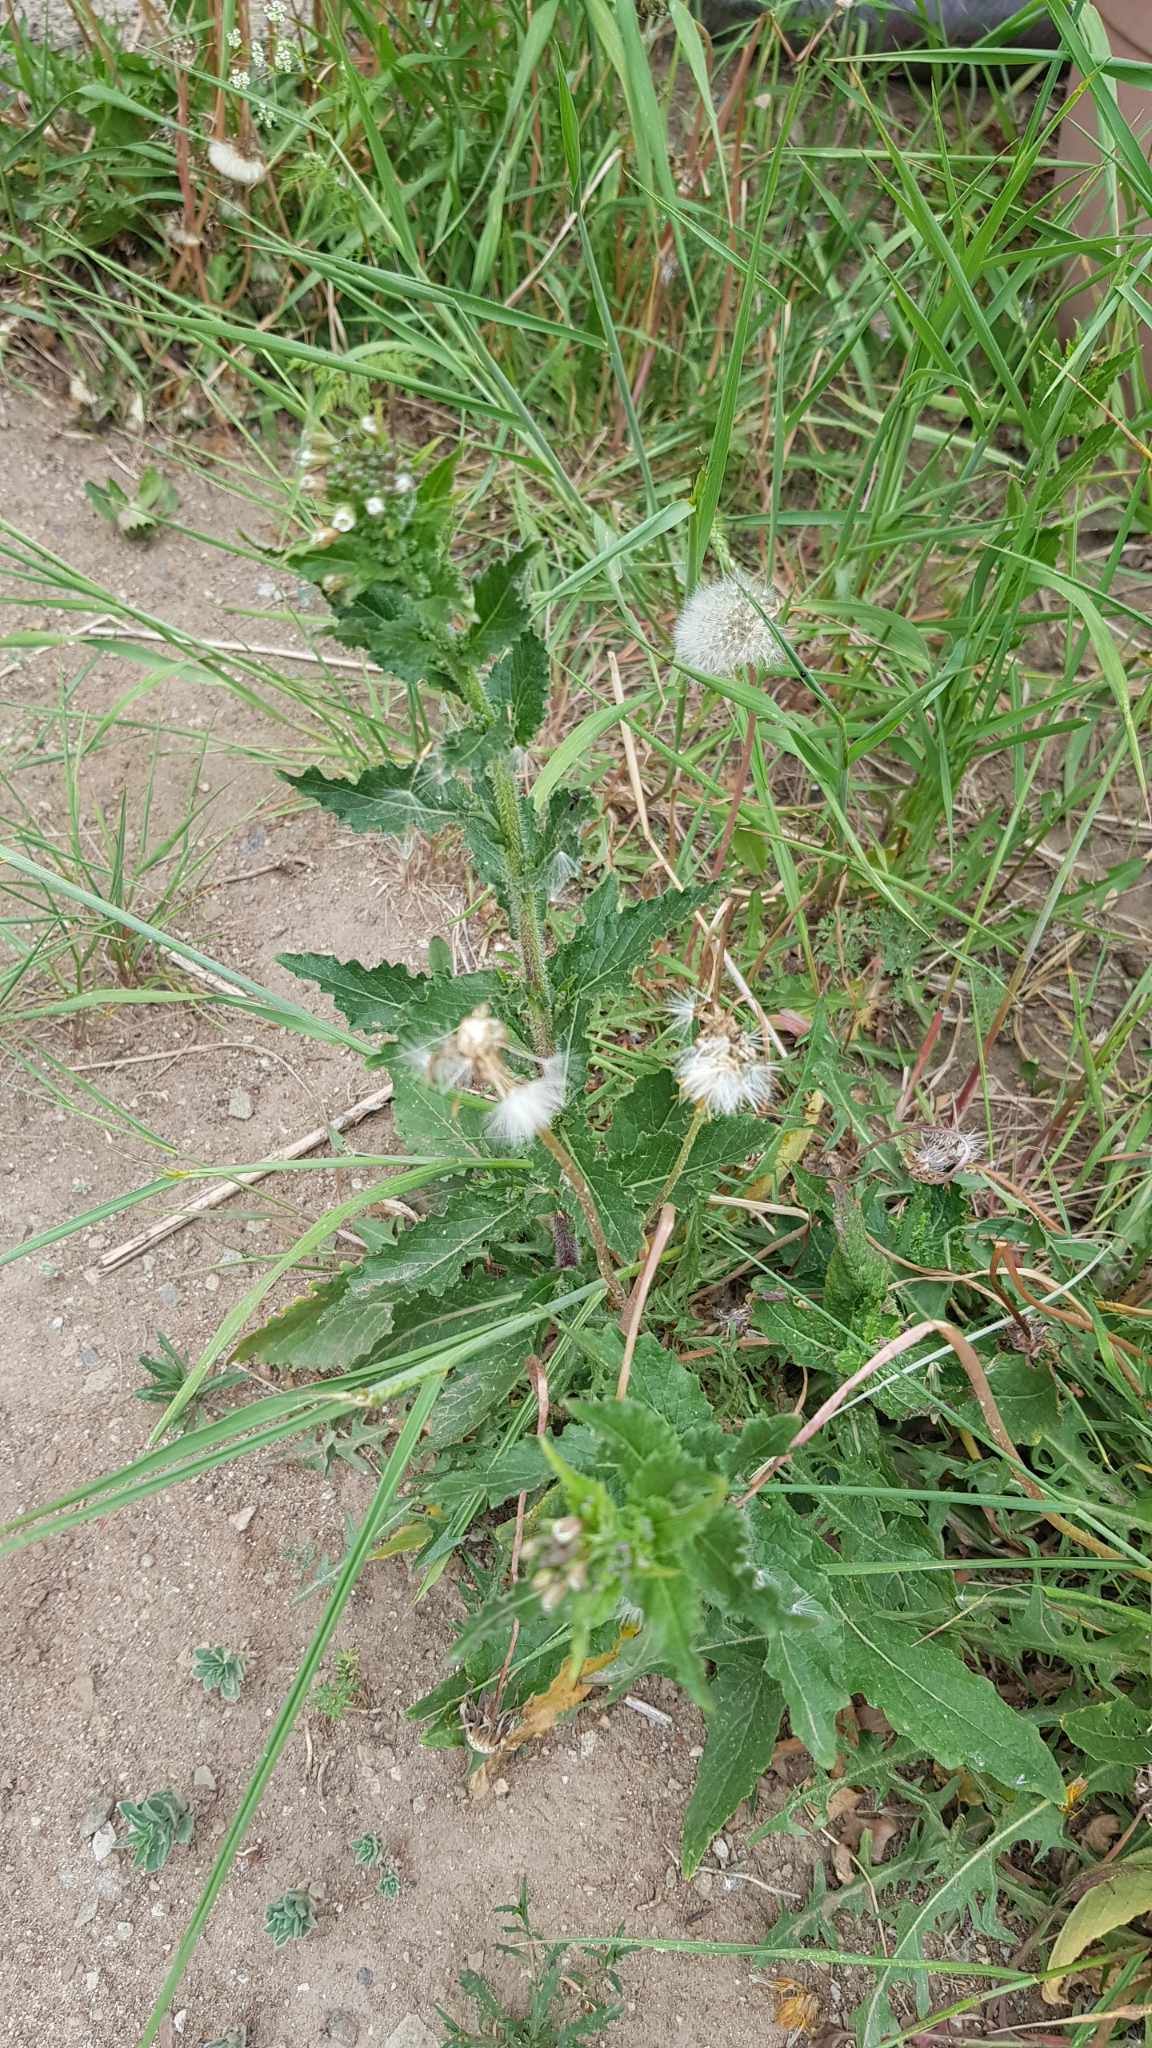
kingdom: Plantae
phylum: Tracheophyta
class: Magnoliopsida
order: Brassicales
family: Brassicaceae
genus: Catolobus
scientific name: Catolobus pendulus
